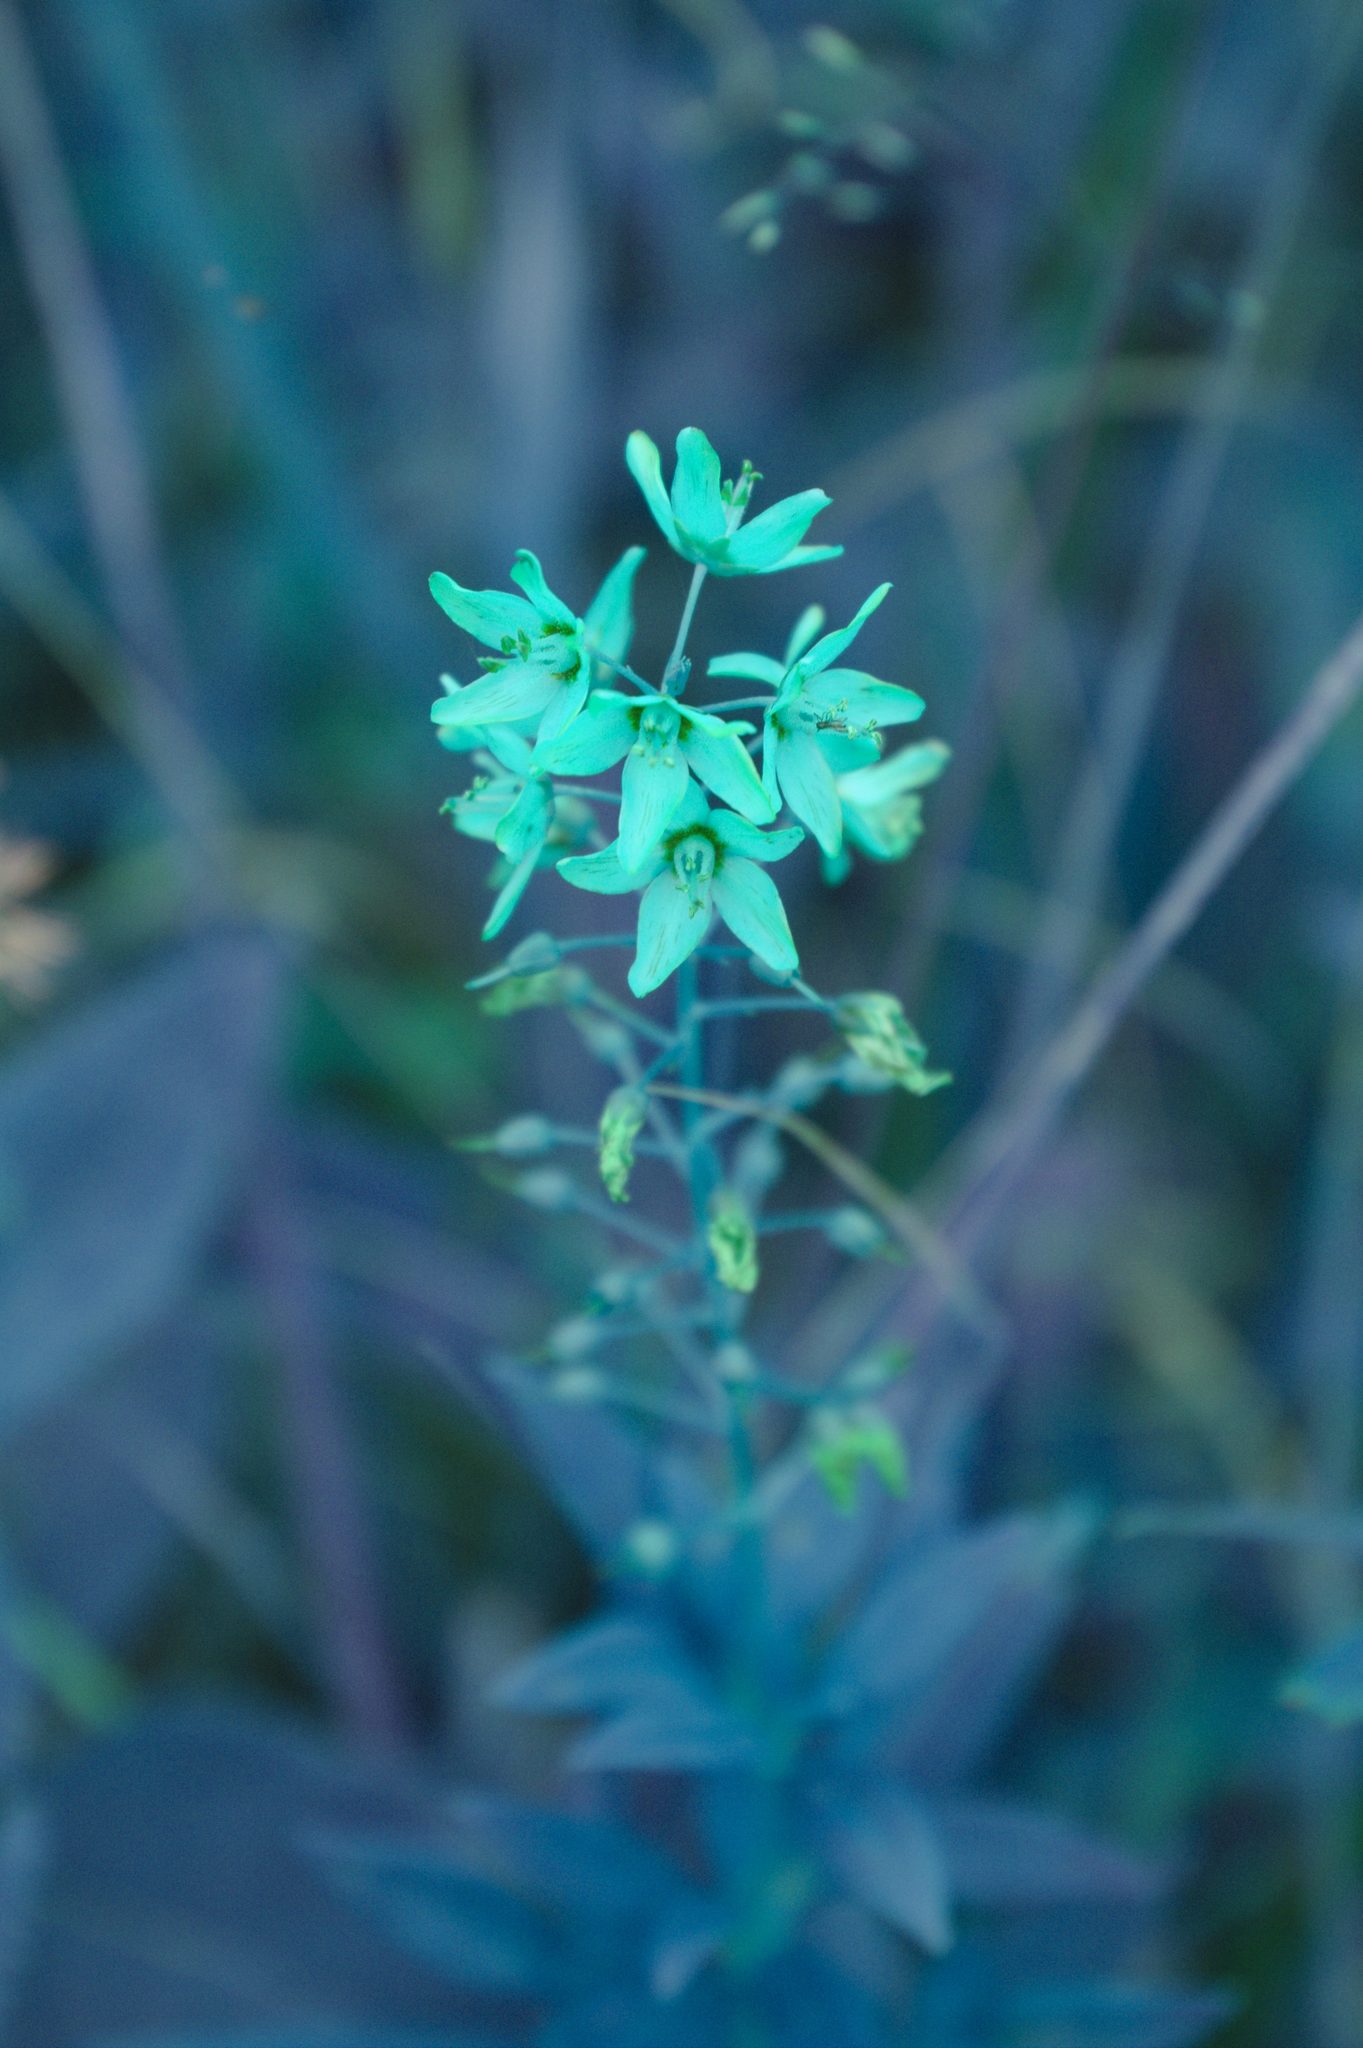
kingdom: Plantae
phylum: Tracheophyta
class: Magnoliopsida
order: Ericales
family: Primulaceae
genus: Lysimachia
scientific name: Lysimachia terrestris
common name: Lake loosestrife
